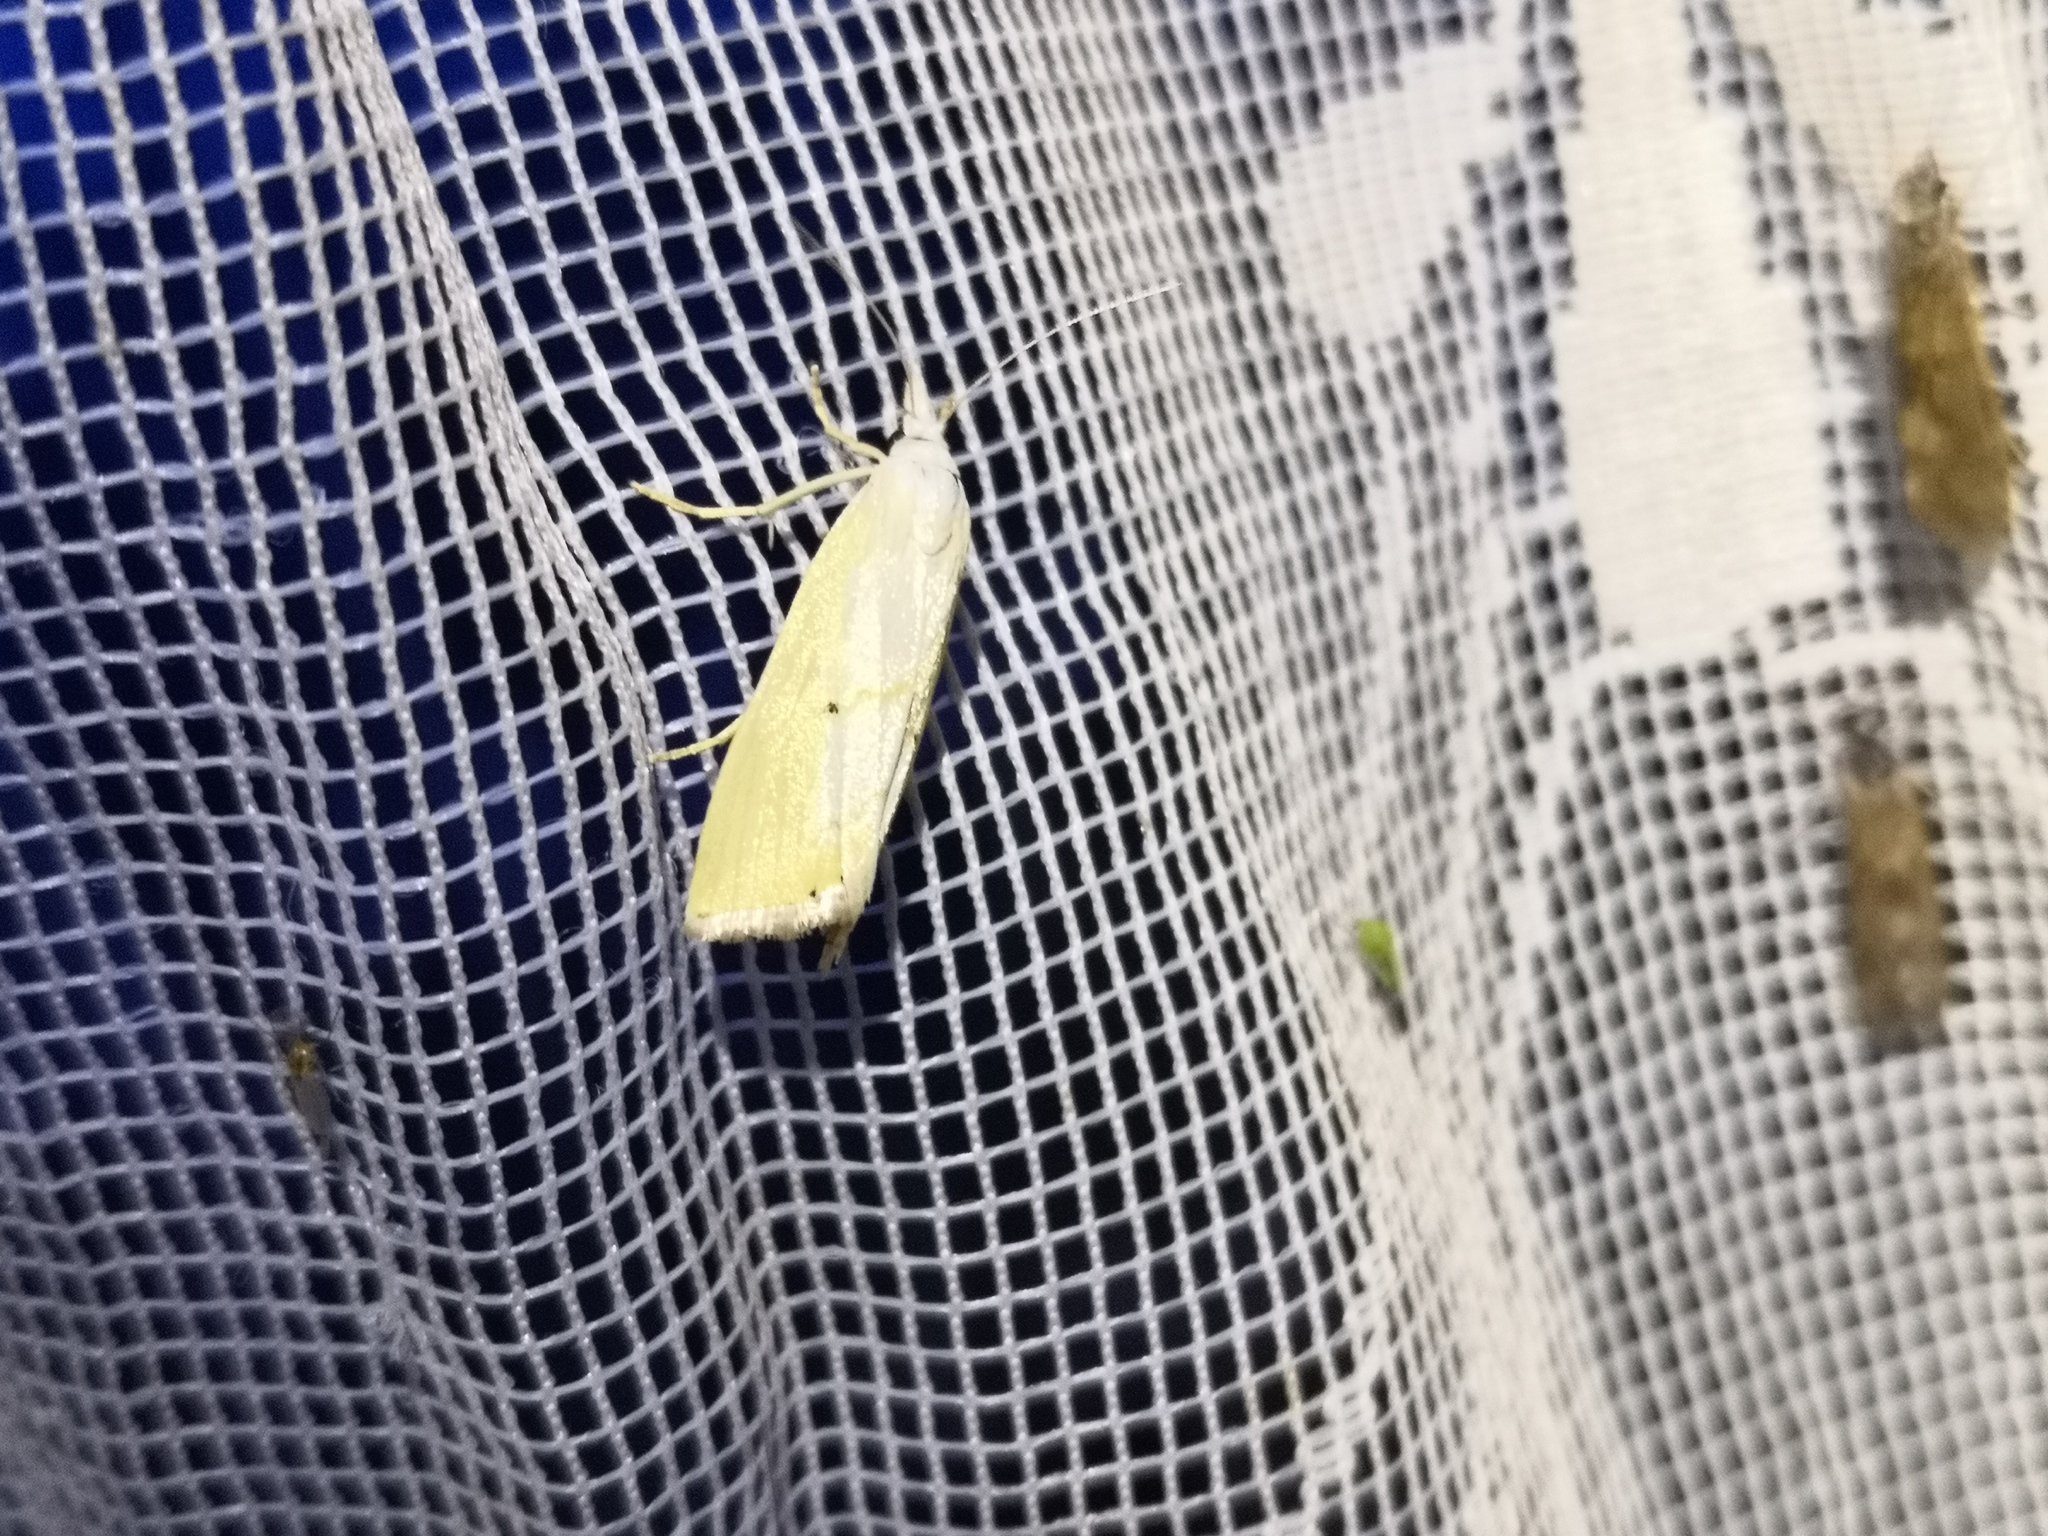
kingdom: Animalia
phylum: Arthropoda
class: Insecta
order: Lepidoptera
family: Crambidae
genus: Xanthocrambus
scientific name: Xanthocrambus saxonellus
